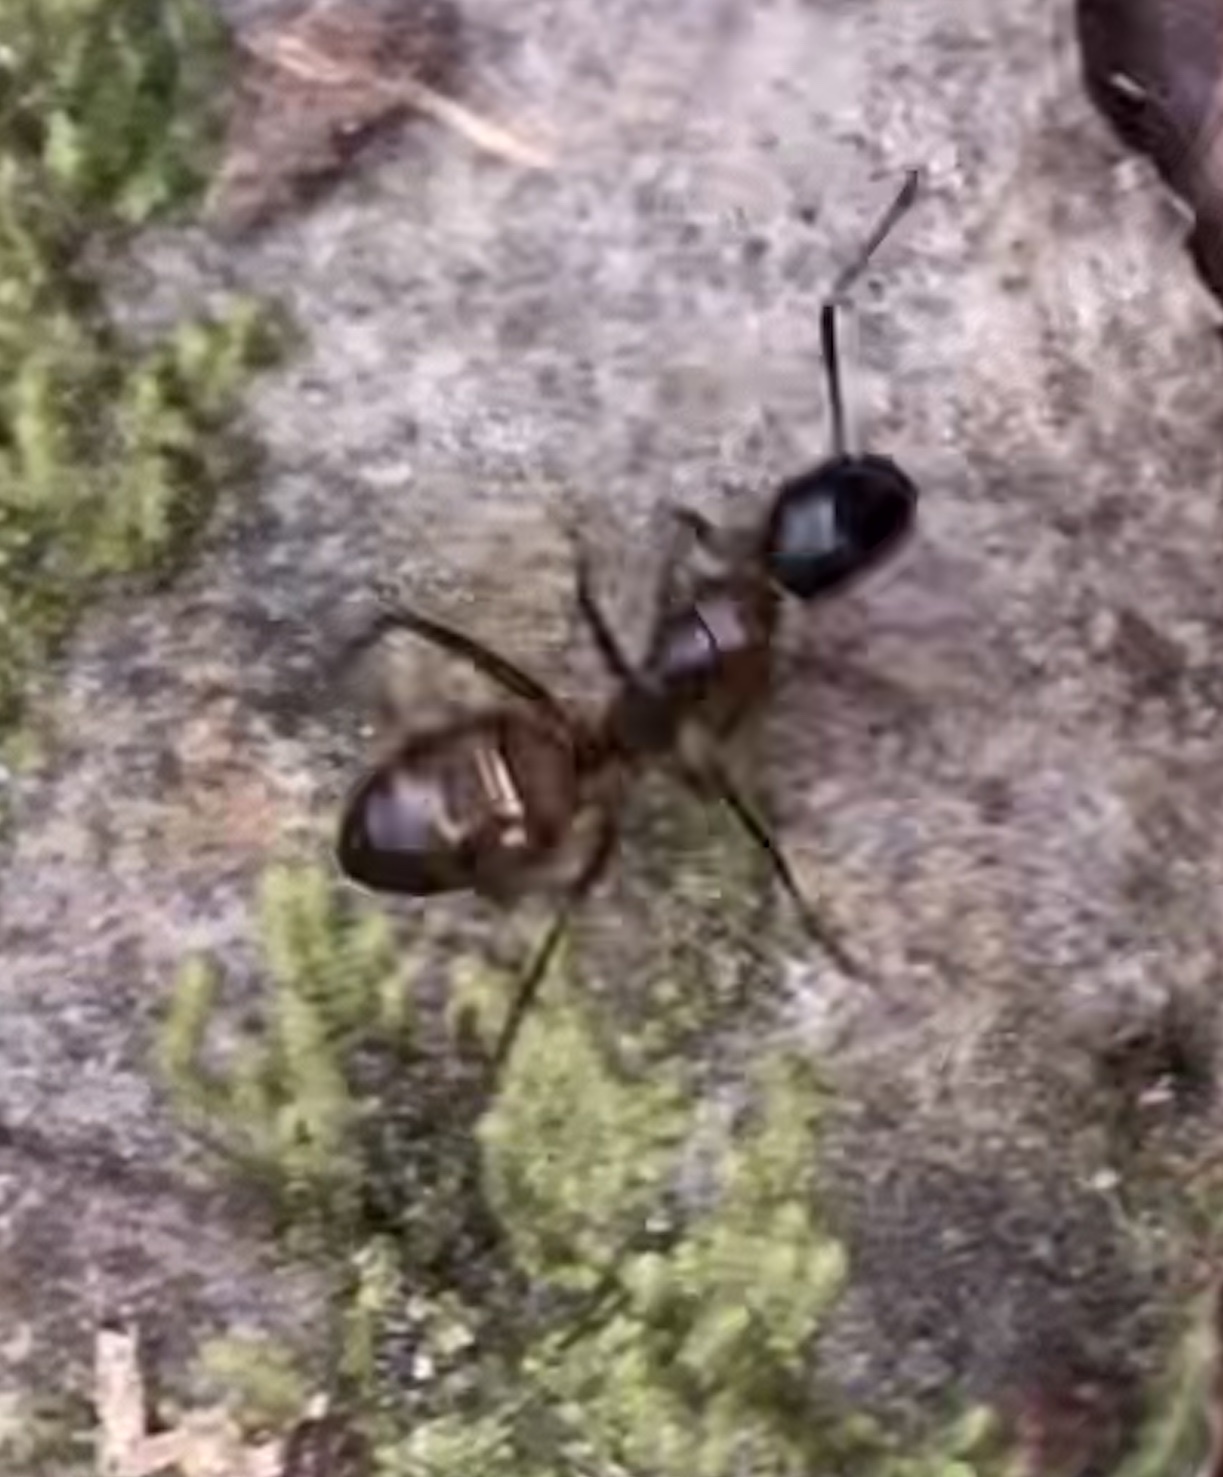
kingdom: Animalia
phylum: Arthropoda
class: Insecta
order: Hymenoptera
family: Formicidae
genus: Camponotus
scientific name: Camponotus americanus
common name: American carpenter ant
